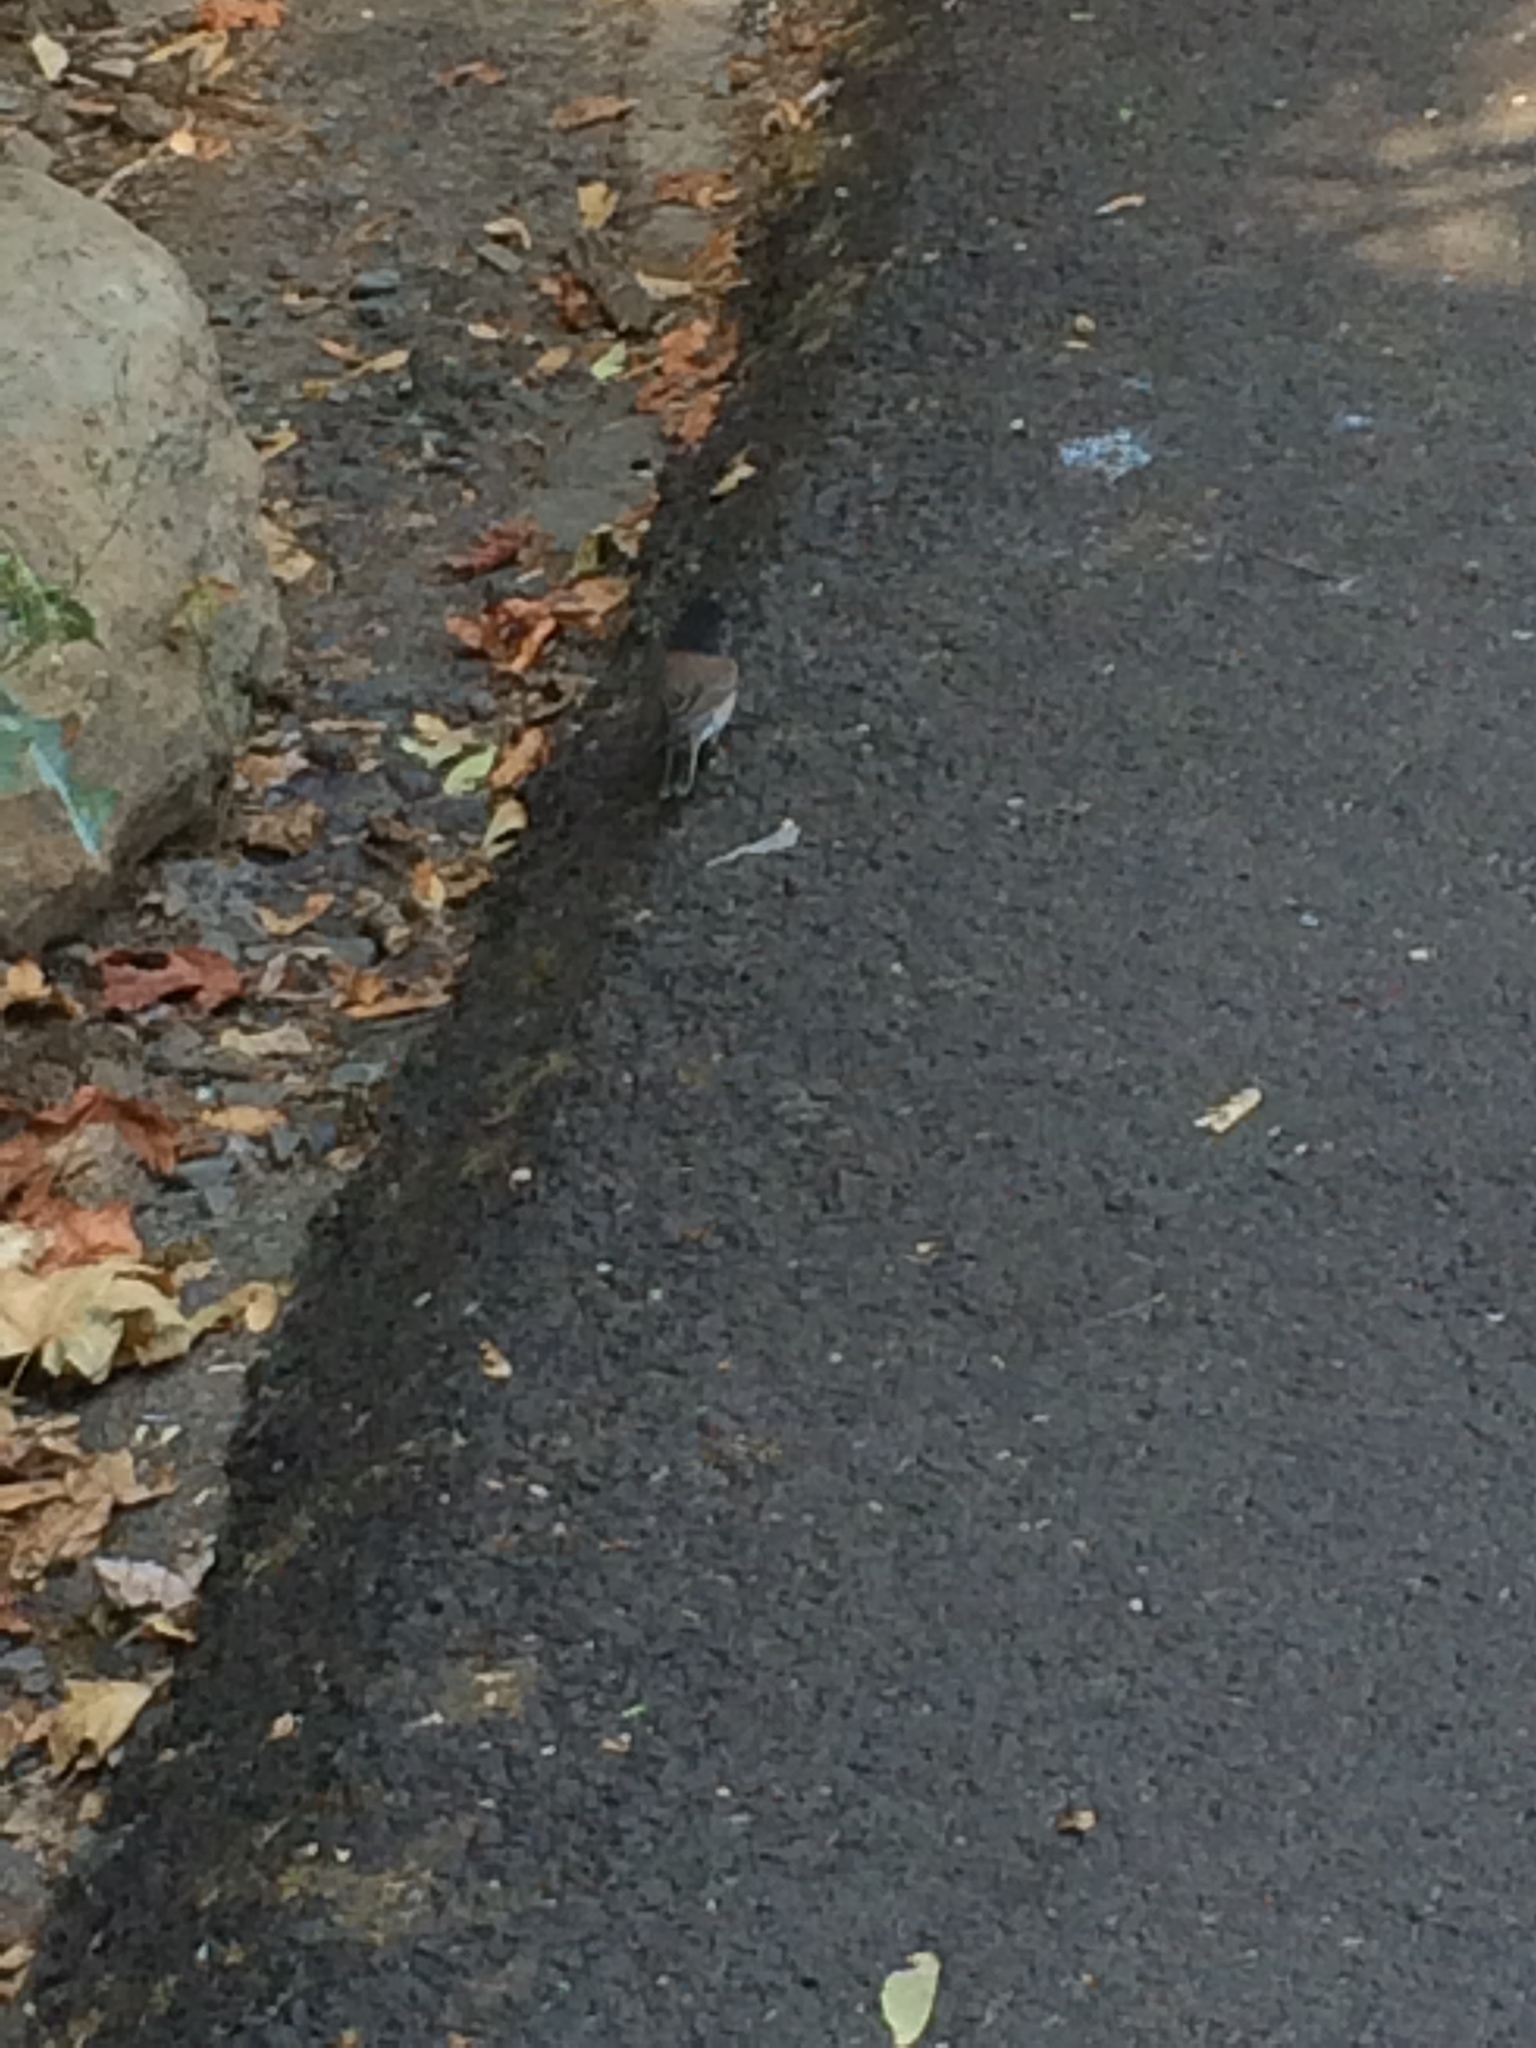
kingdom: Animalia
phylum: Chordata
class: Aves
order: Passeriformes
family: Passerellidae
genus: Junco
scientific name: Junco hyemalis
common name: Dark-eyed junco
